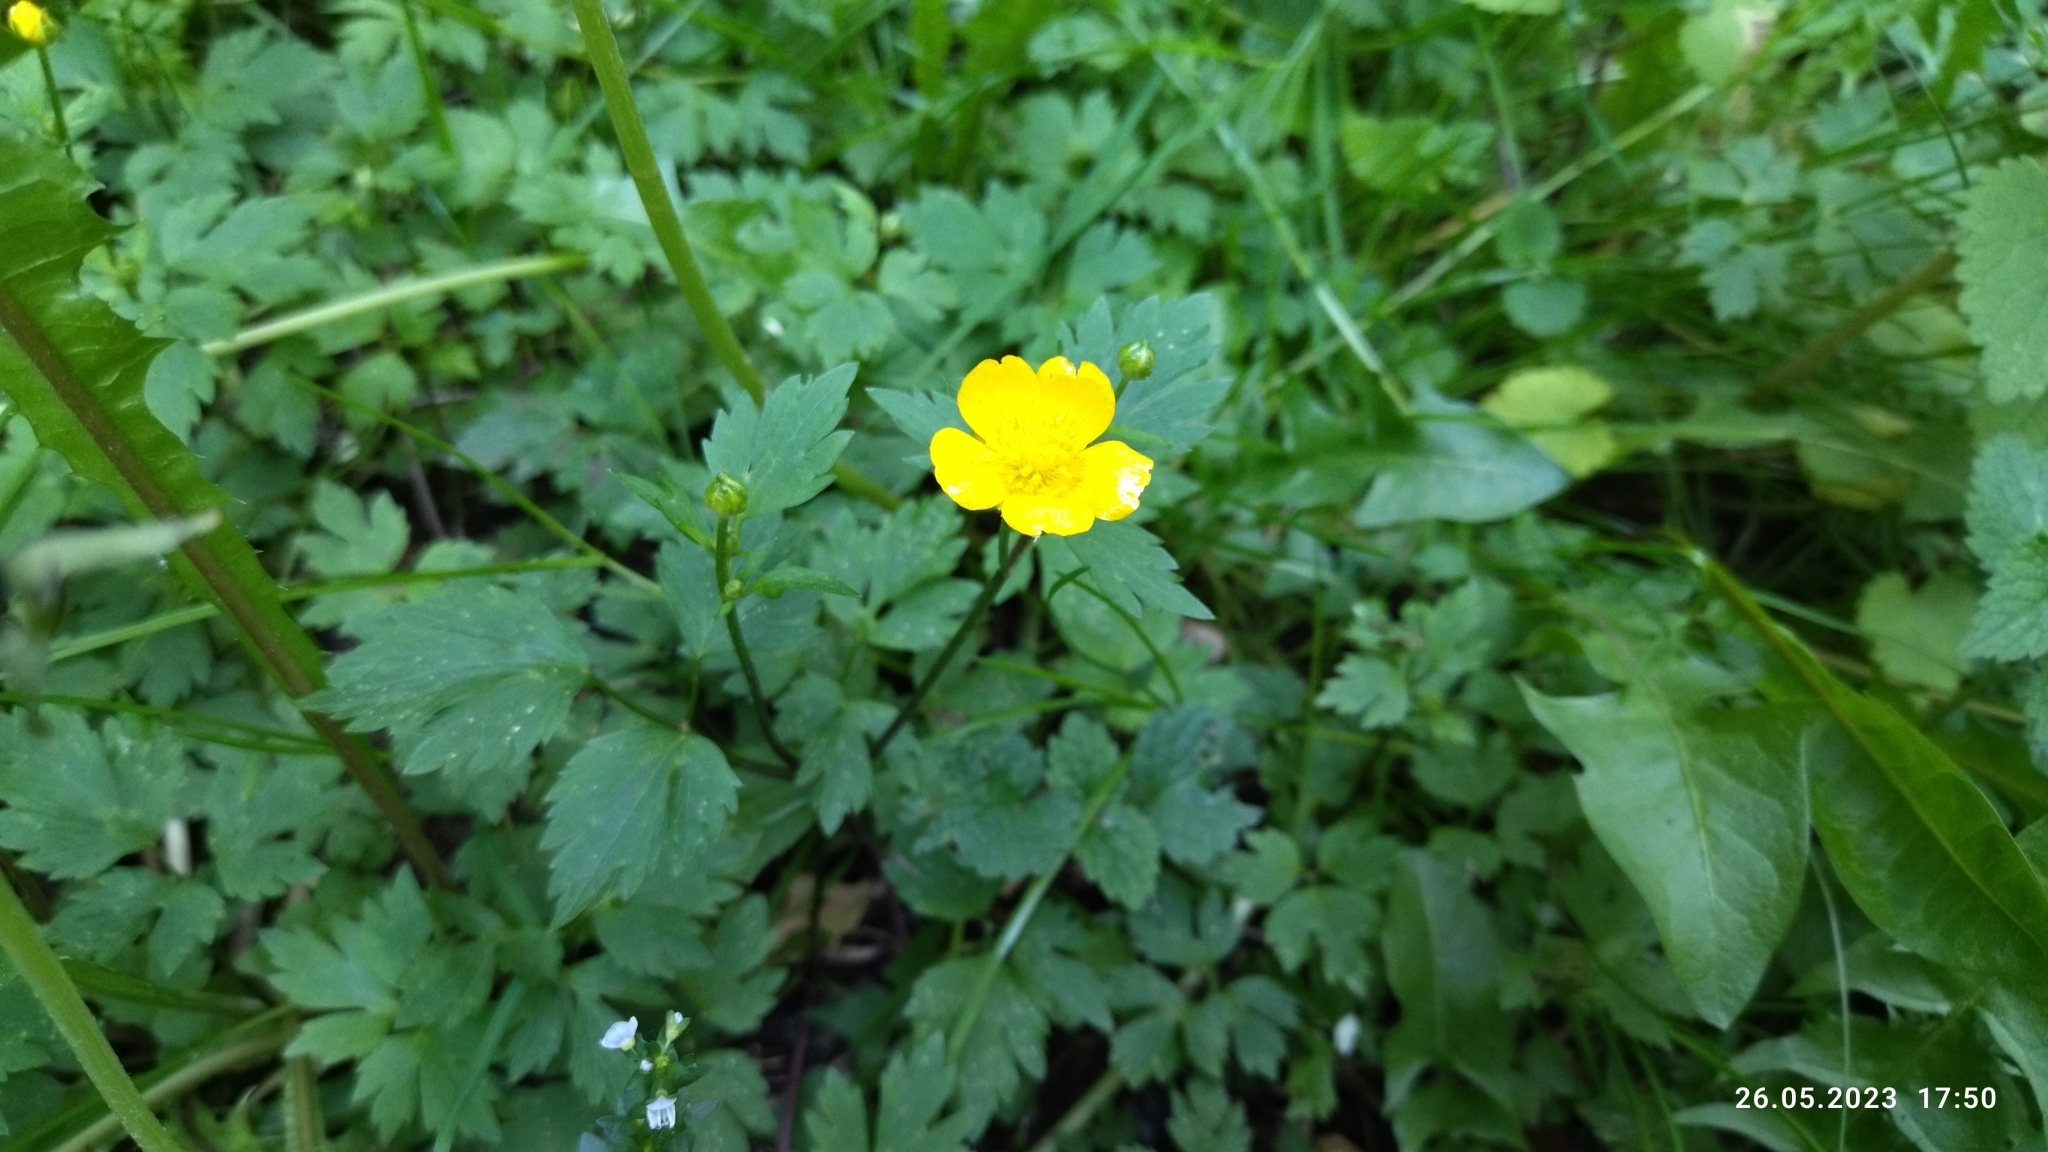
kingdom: Plantae
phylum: Tracheophyta
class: Magnoliopsida
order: Ranunculales
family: Ranunculaceae
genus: Ranunculus
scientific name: Ranunculus repens
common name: Creeping buttercup
